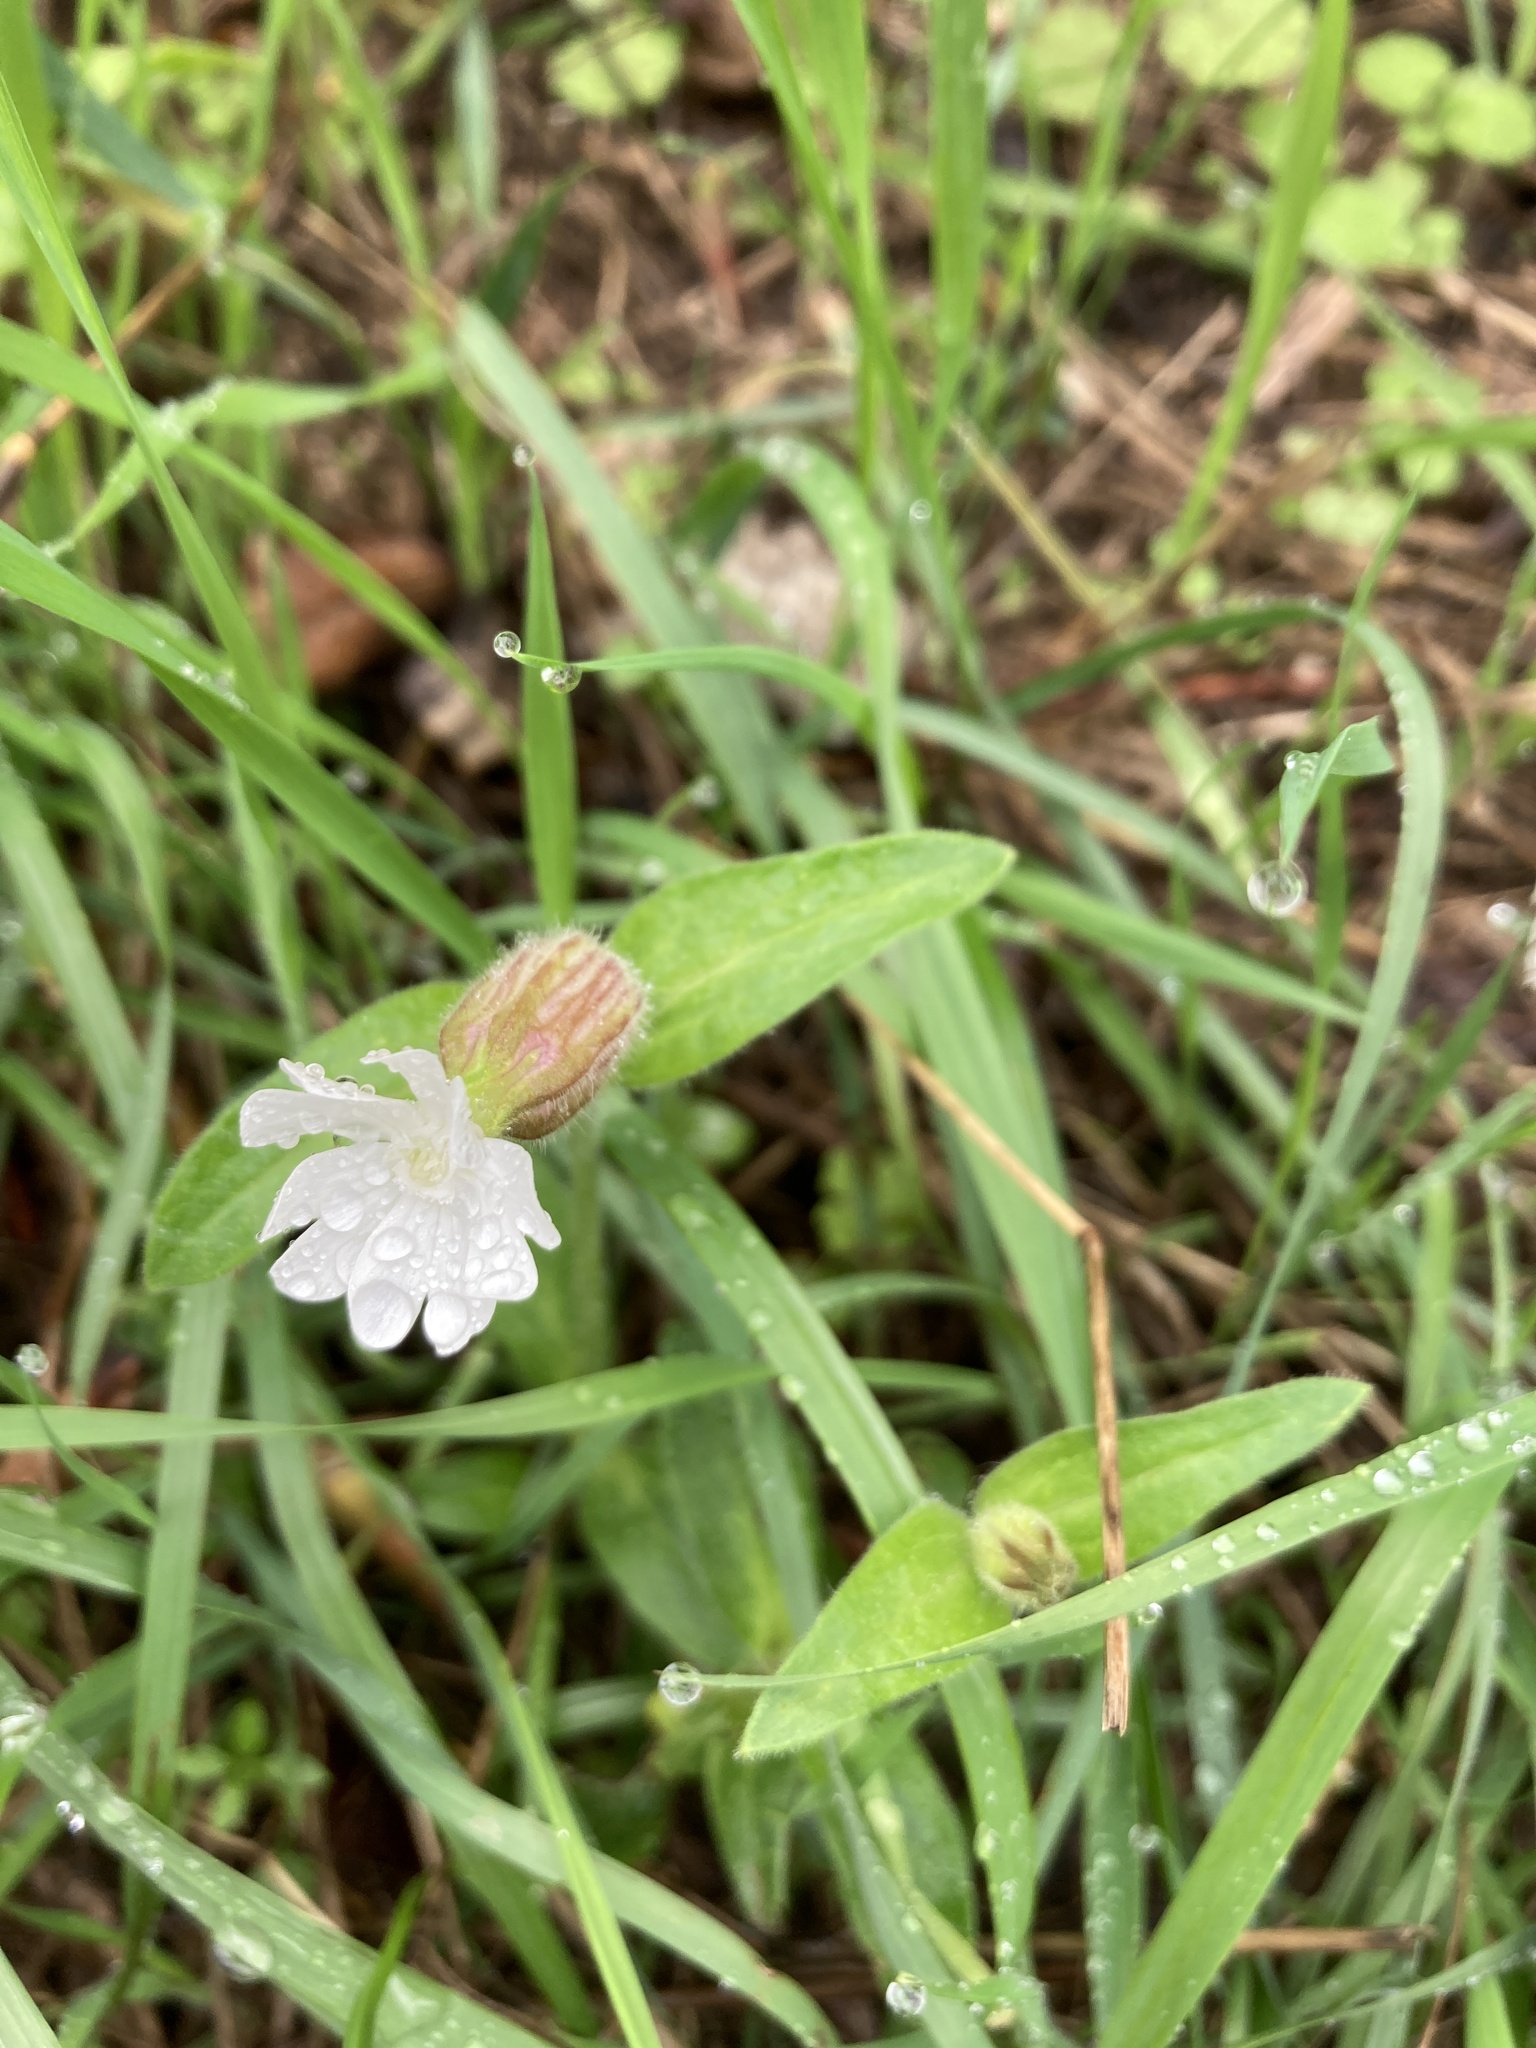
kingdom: Plantae
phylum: Tracheophyta
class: Magnoliopsida
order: Caryophyllales
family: Caryophyllaceae
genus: Silene
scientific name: Silene latifolia
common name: White campion
